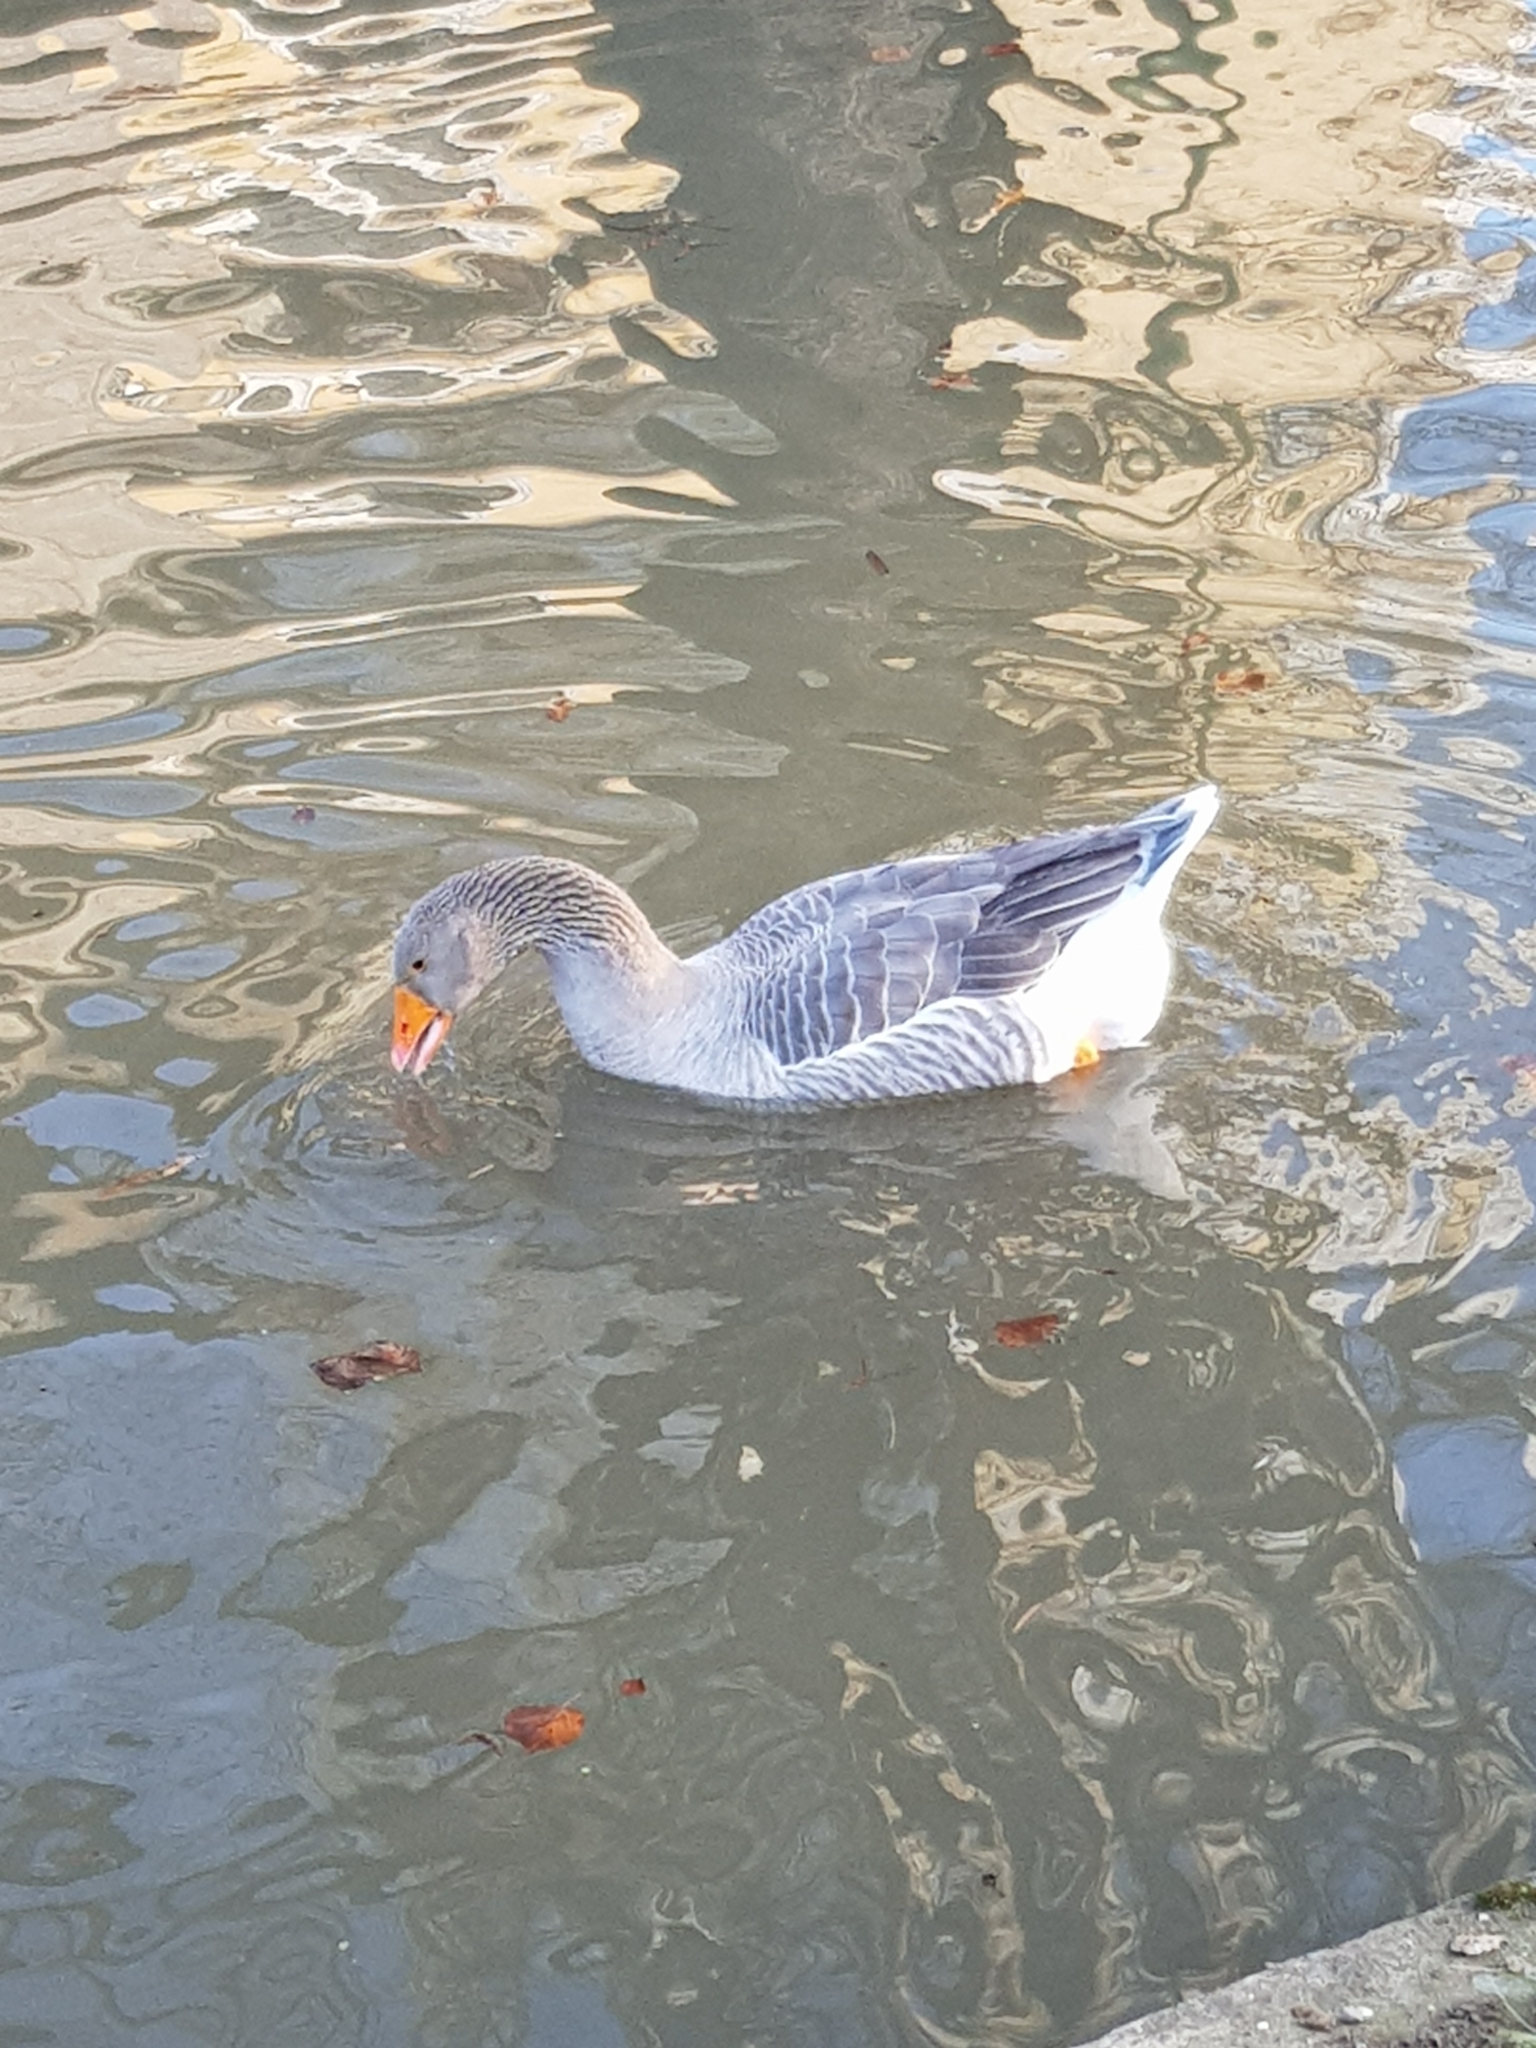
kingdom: Animalia
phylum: Chordata
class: Aves
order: Anseriformes
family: Anatidae
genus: Anser
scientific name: Anser anser
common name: Greylag goose
